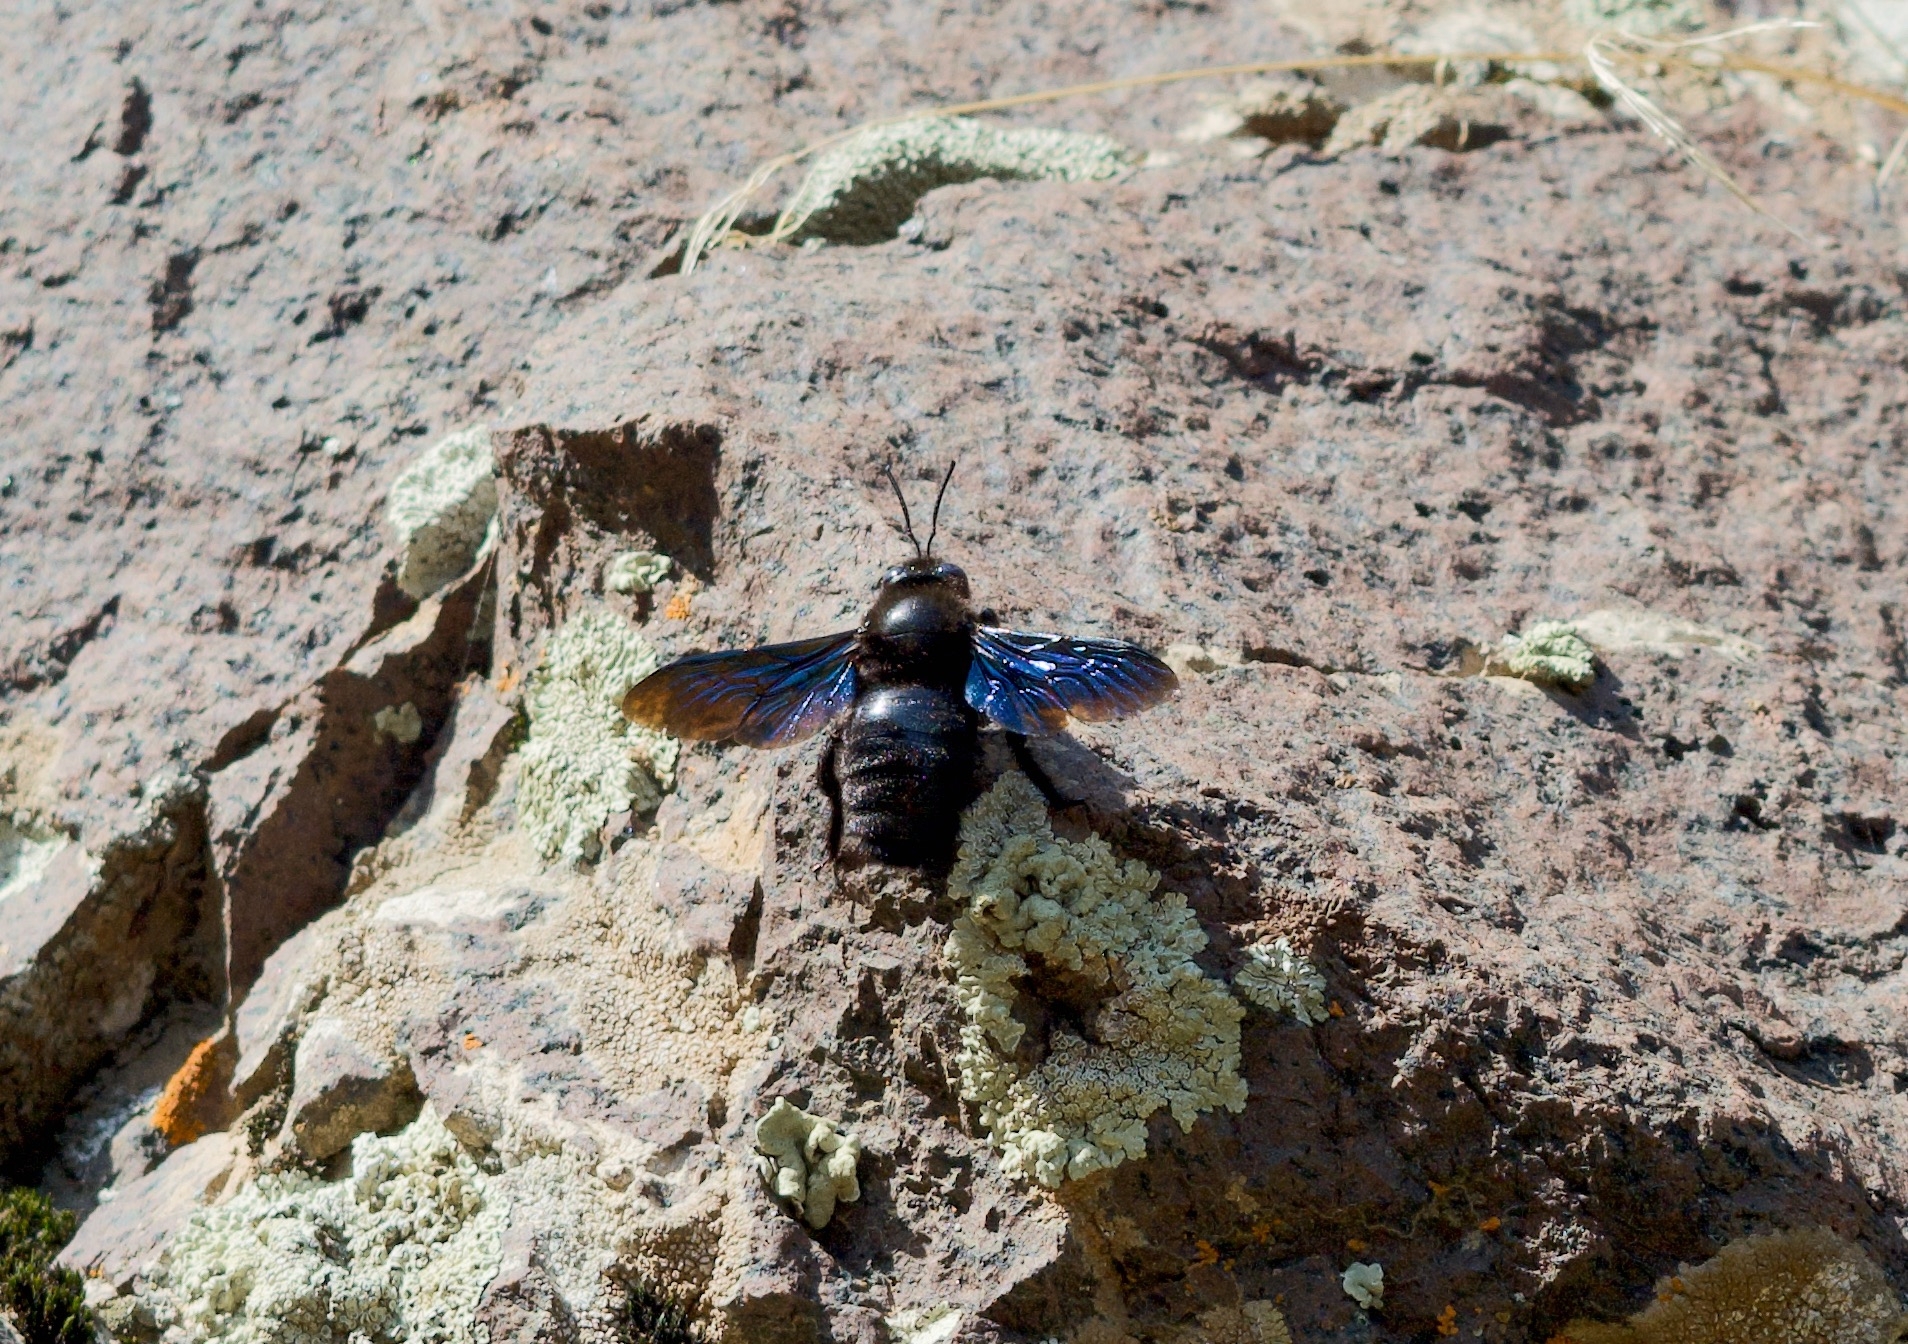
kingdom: Animalia
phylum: Arthropoda
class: Insecta
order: Hymenoptera
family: Apidae
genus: Xylocopa
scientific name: Xylocopa valga
